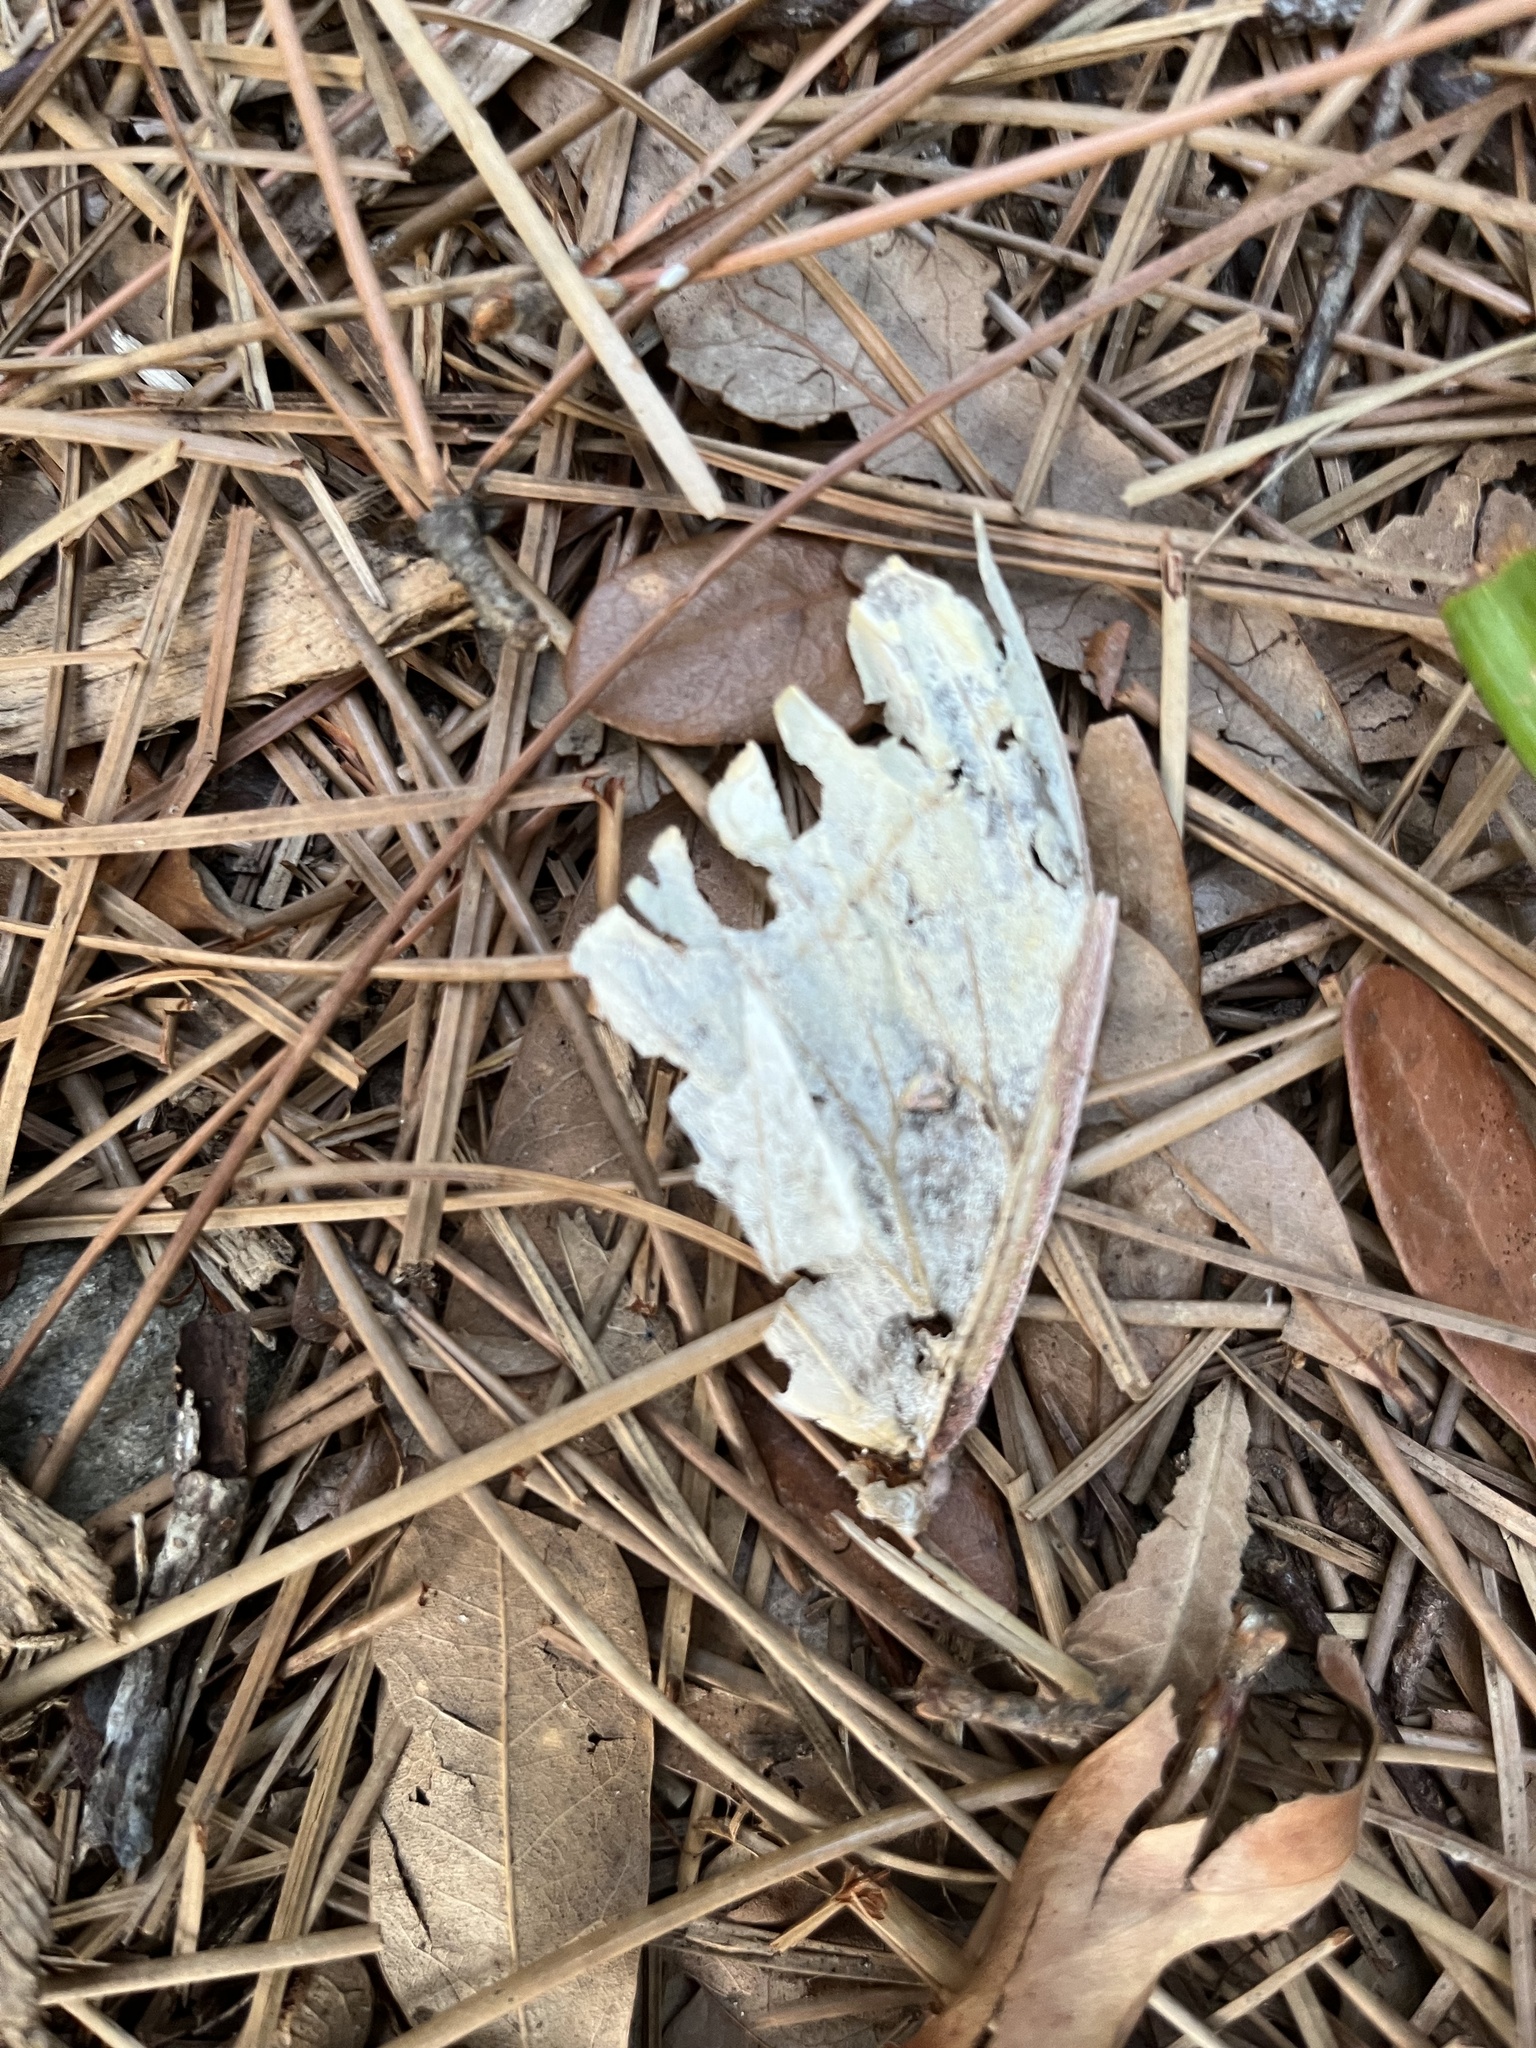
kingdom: Animalia
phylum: Arthropoda
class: Insecta
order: Lepidoptera
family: Saturniidae
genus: Actias
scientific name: Actias luna
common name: Luna moth
